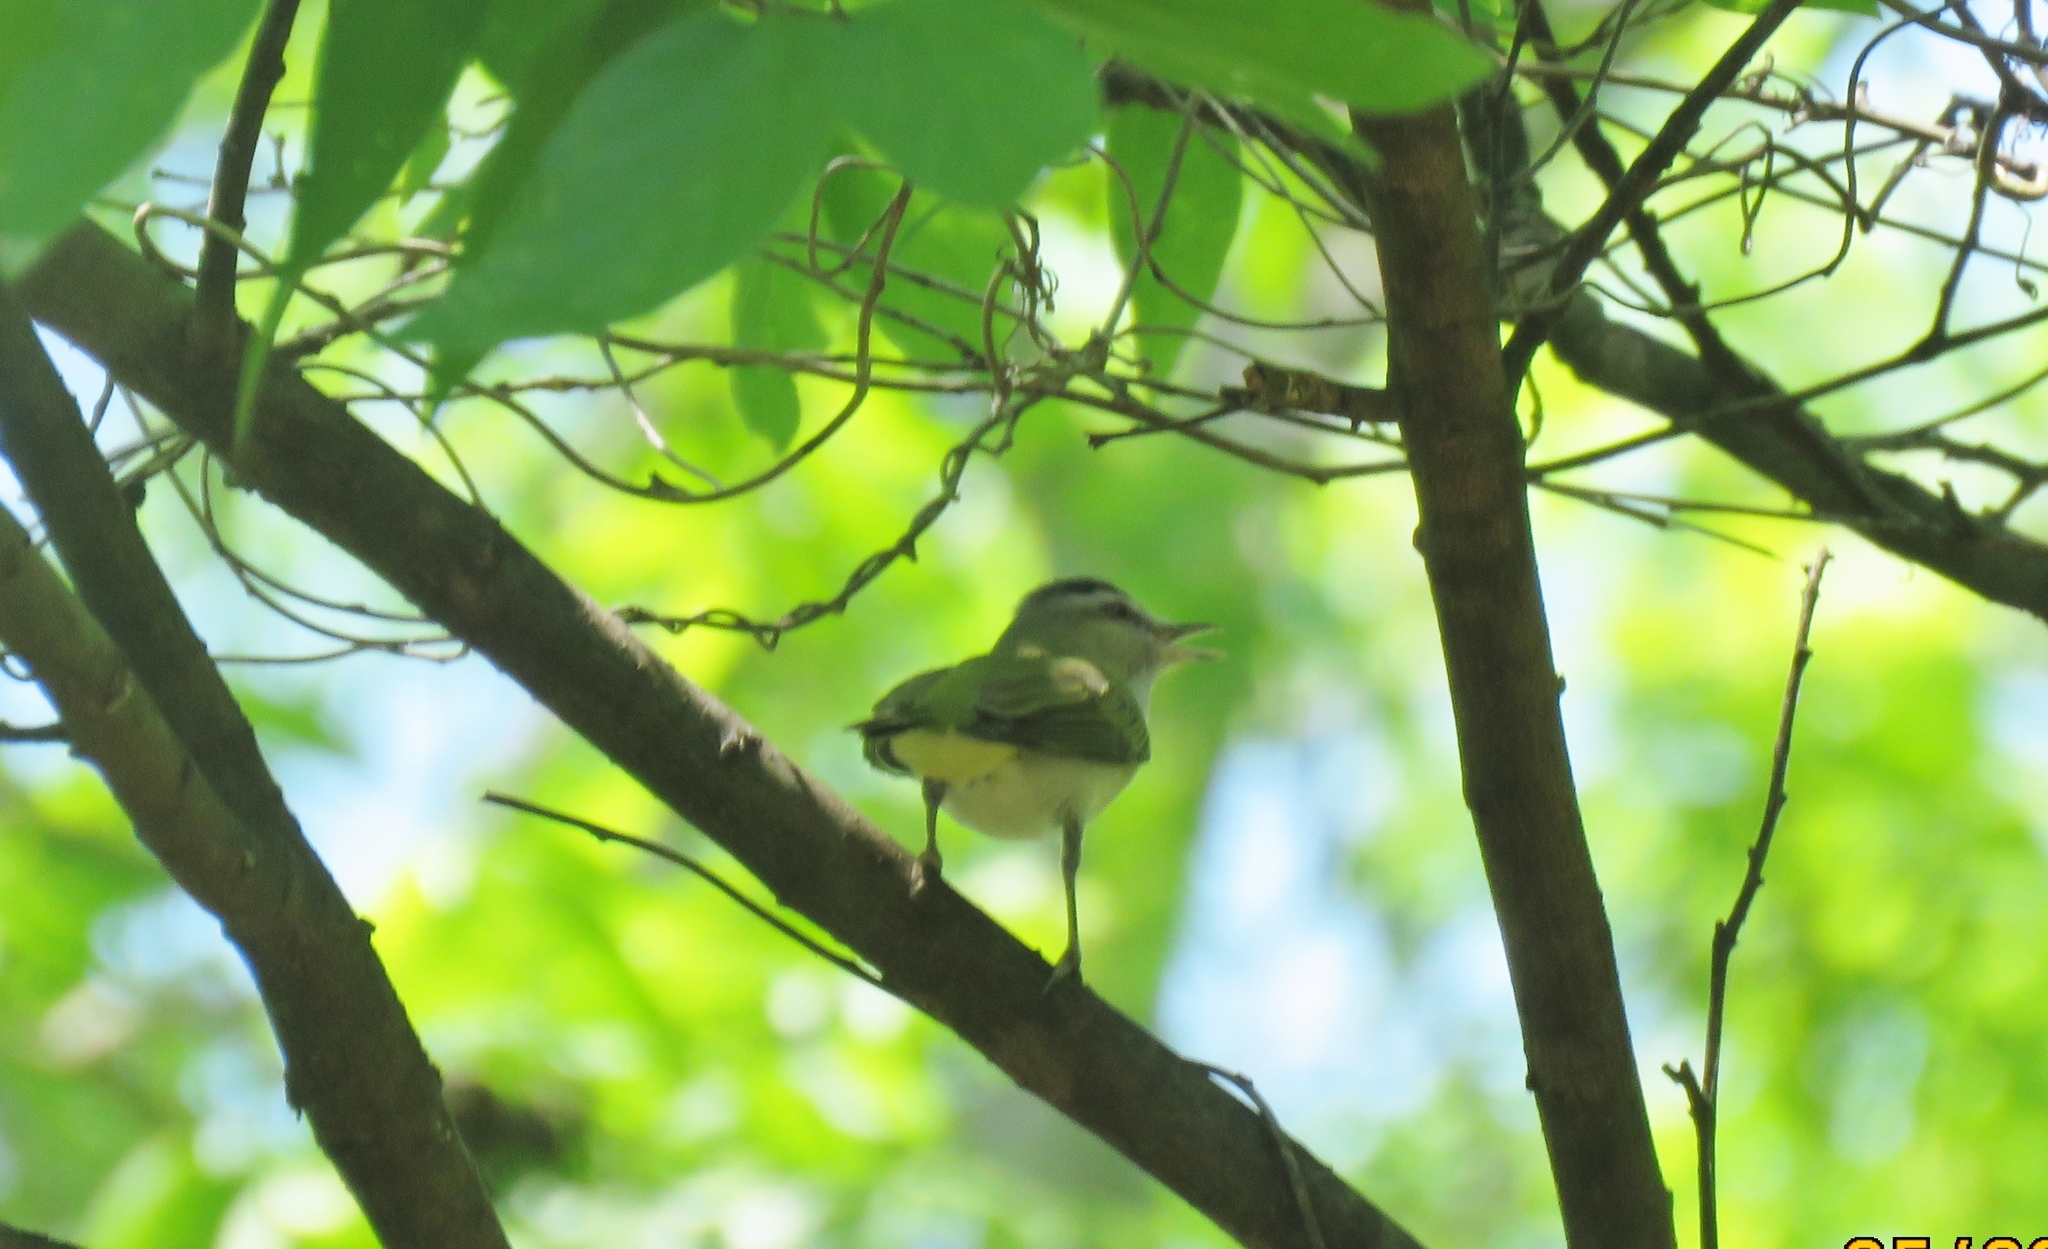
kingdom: Animalia
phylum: Chordata
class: Aves
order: Passeriformes
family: Vireonidae
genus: Vireo
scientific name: Vireo olivaceus
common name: Red-eyed vireo
